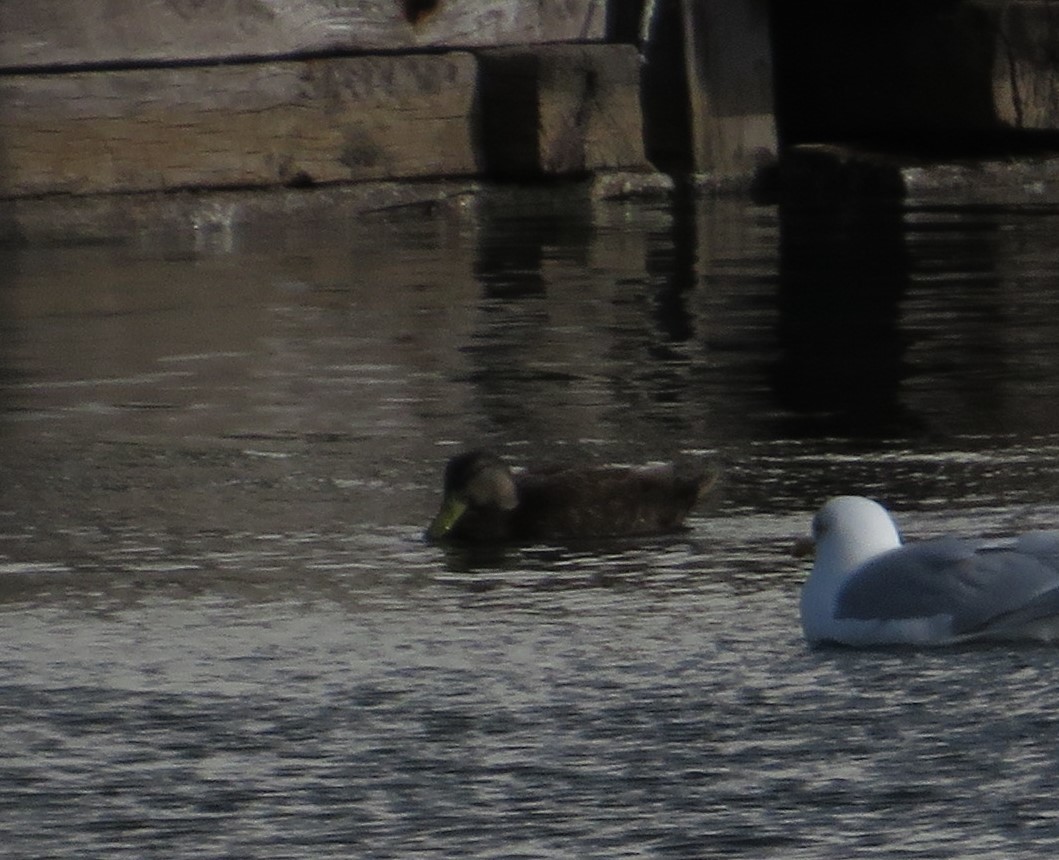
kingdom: Animalia
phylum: Chordata
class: Aves
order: Anseriformes
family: Anatidae
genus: Anas
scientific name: Anas rubripes
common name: American black duck
